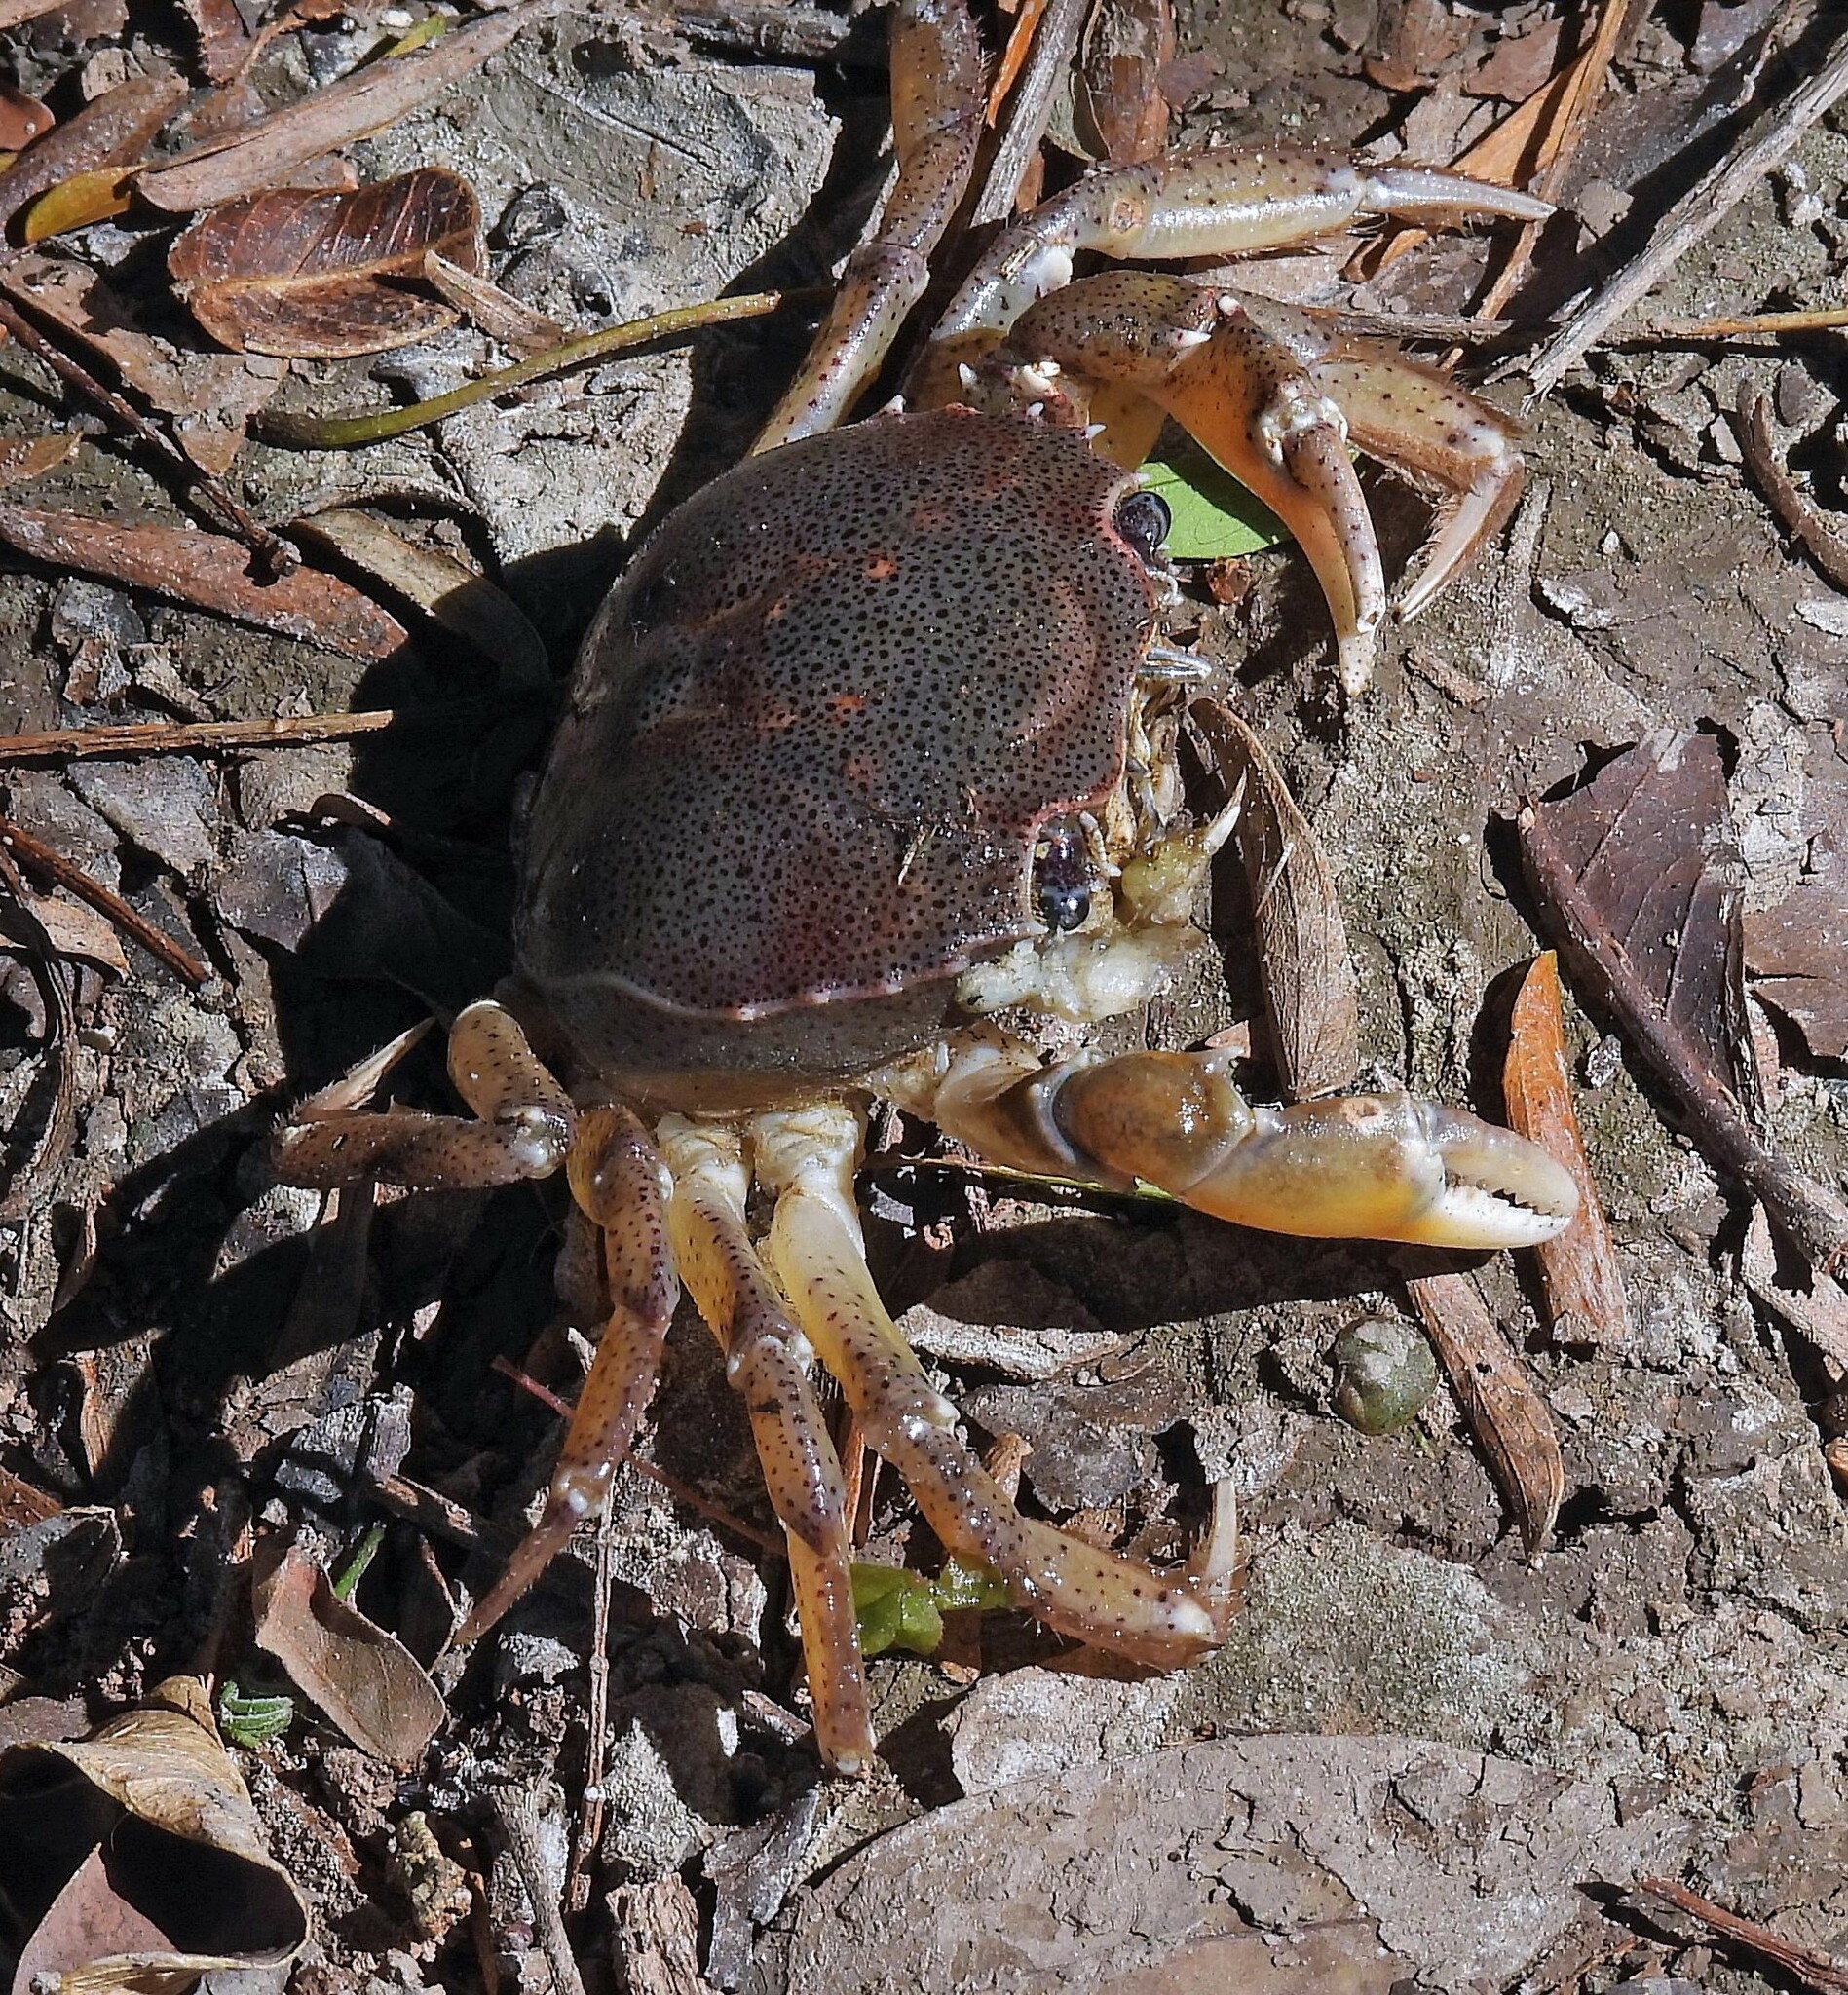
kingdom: Animalia
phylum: Arthropoda
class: Malacostraca
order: Decapoda
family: Trichodactylidae
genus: Zilchiopsis
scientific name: Zilchiopsis collastinensis
